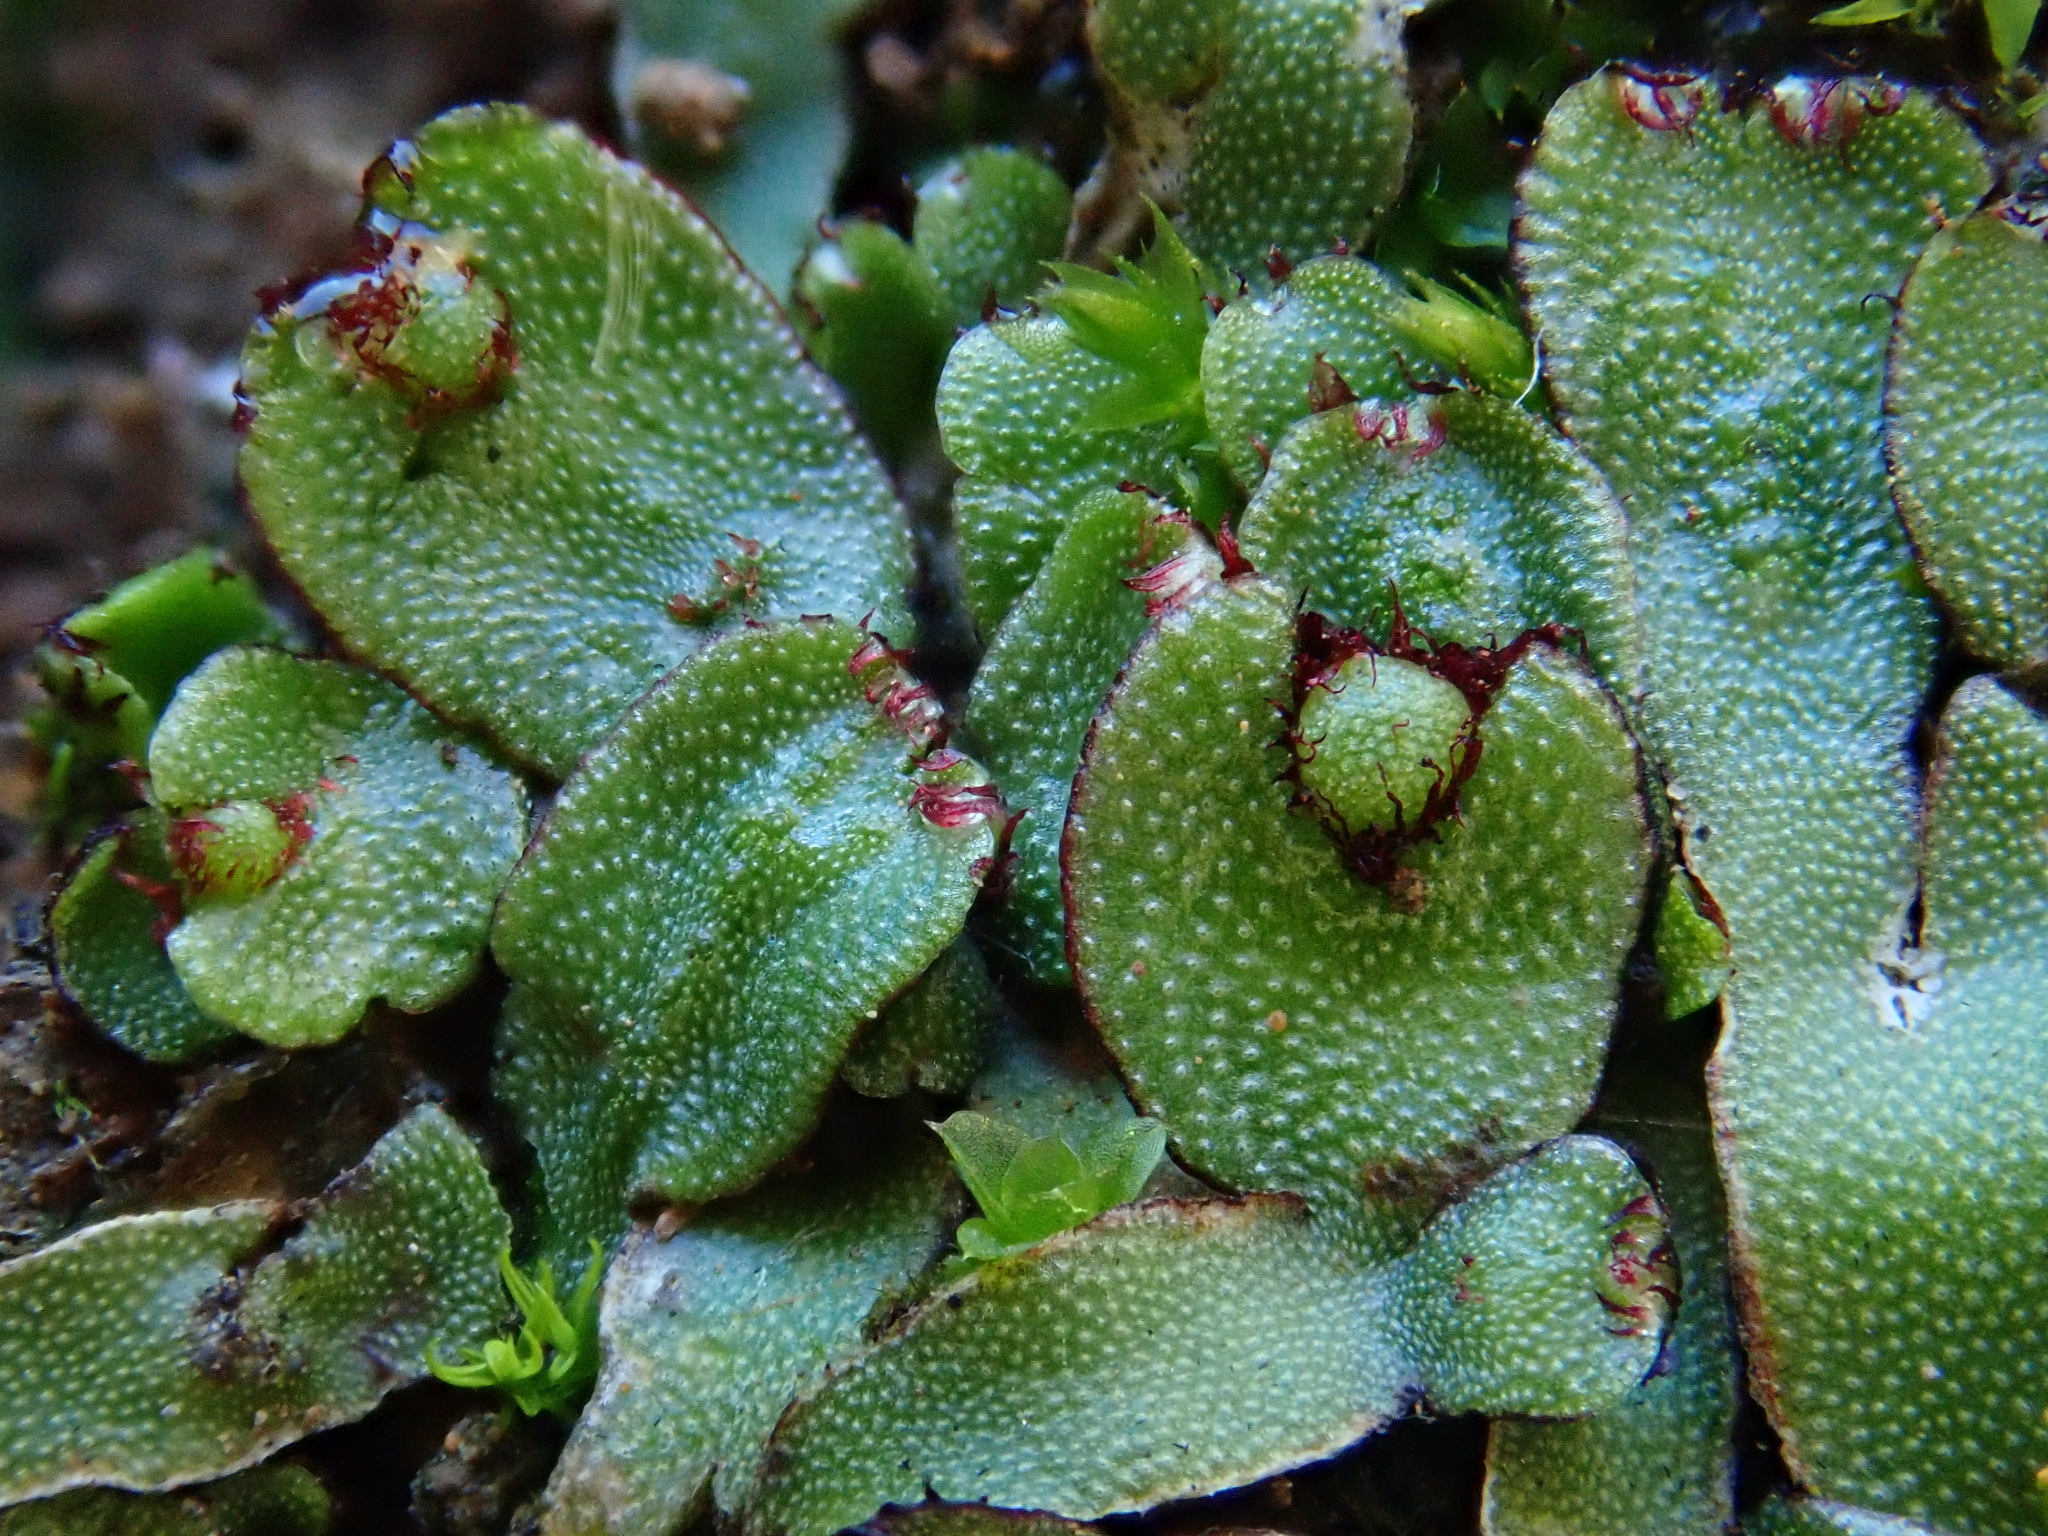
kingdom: Plantae
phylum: Marchantiophyta
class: Marchantiopsida
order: Marchantiales
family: Aytoniaceae
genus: Mannia
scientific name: Mannia androgyna
